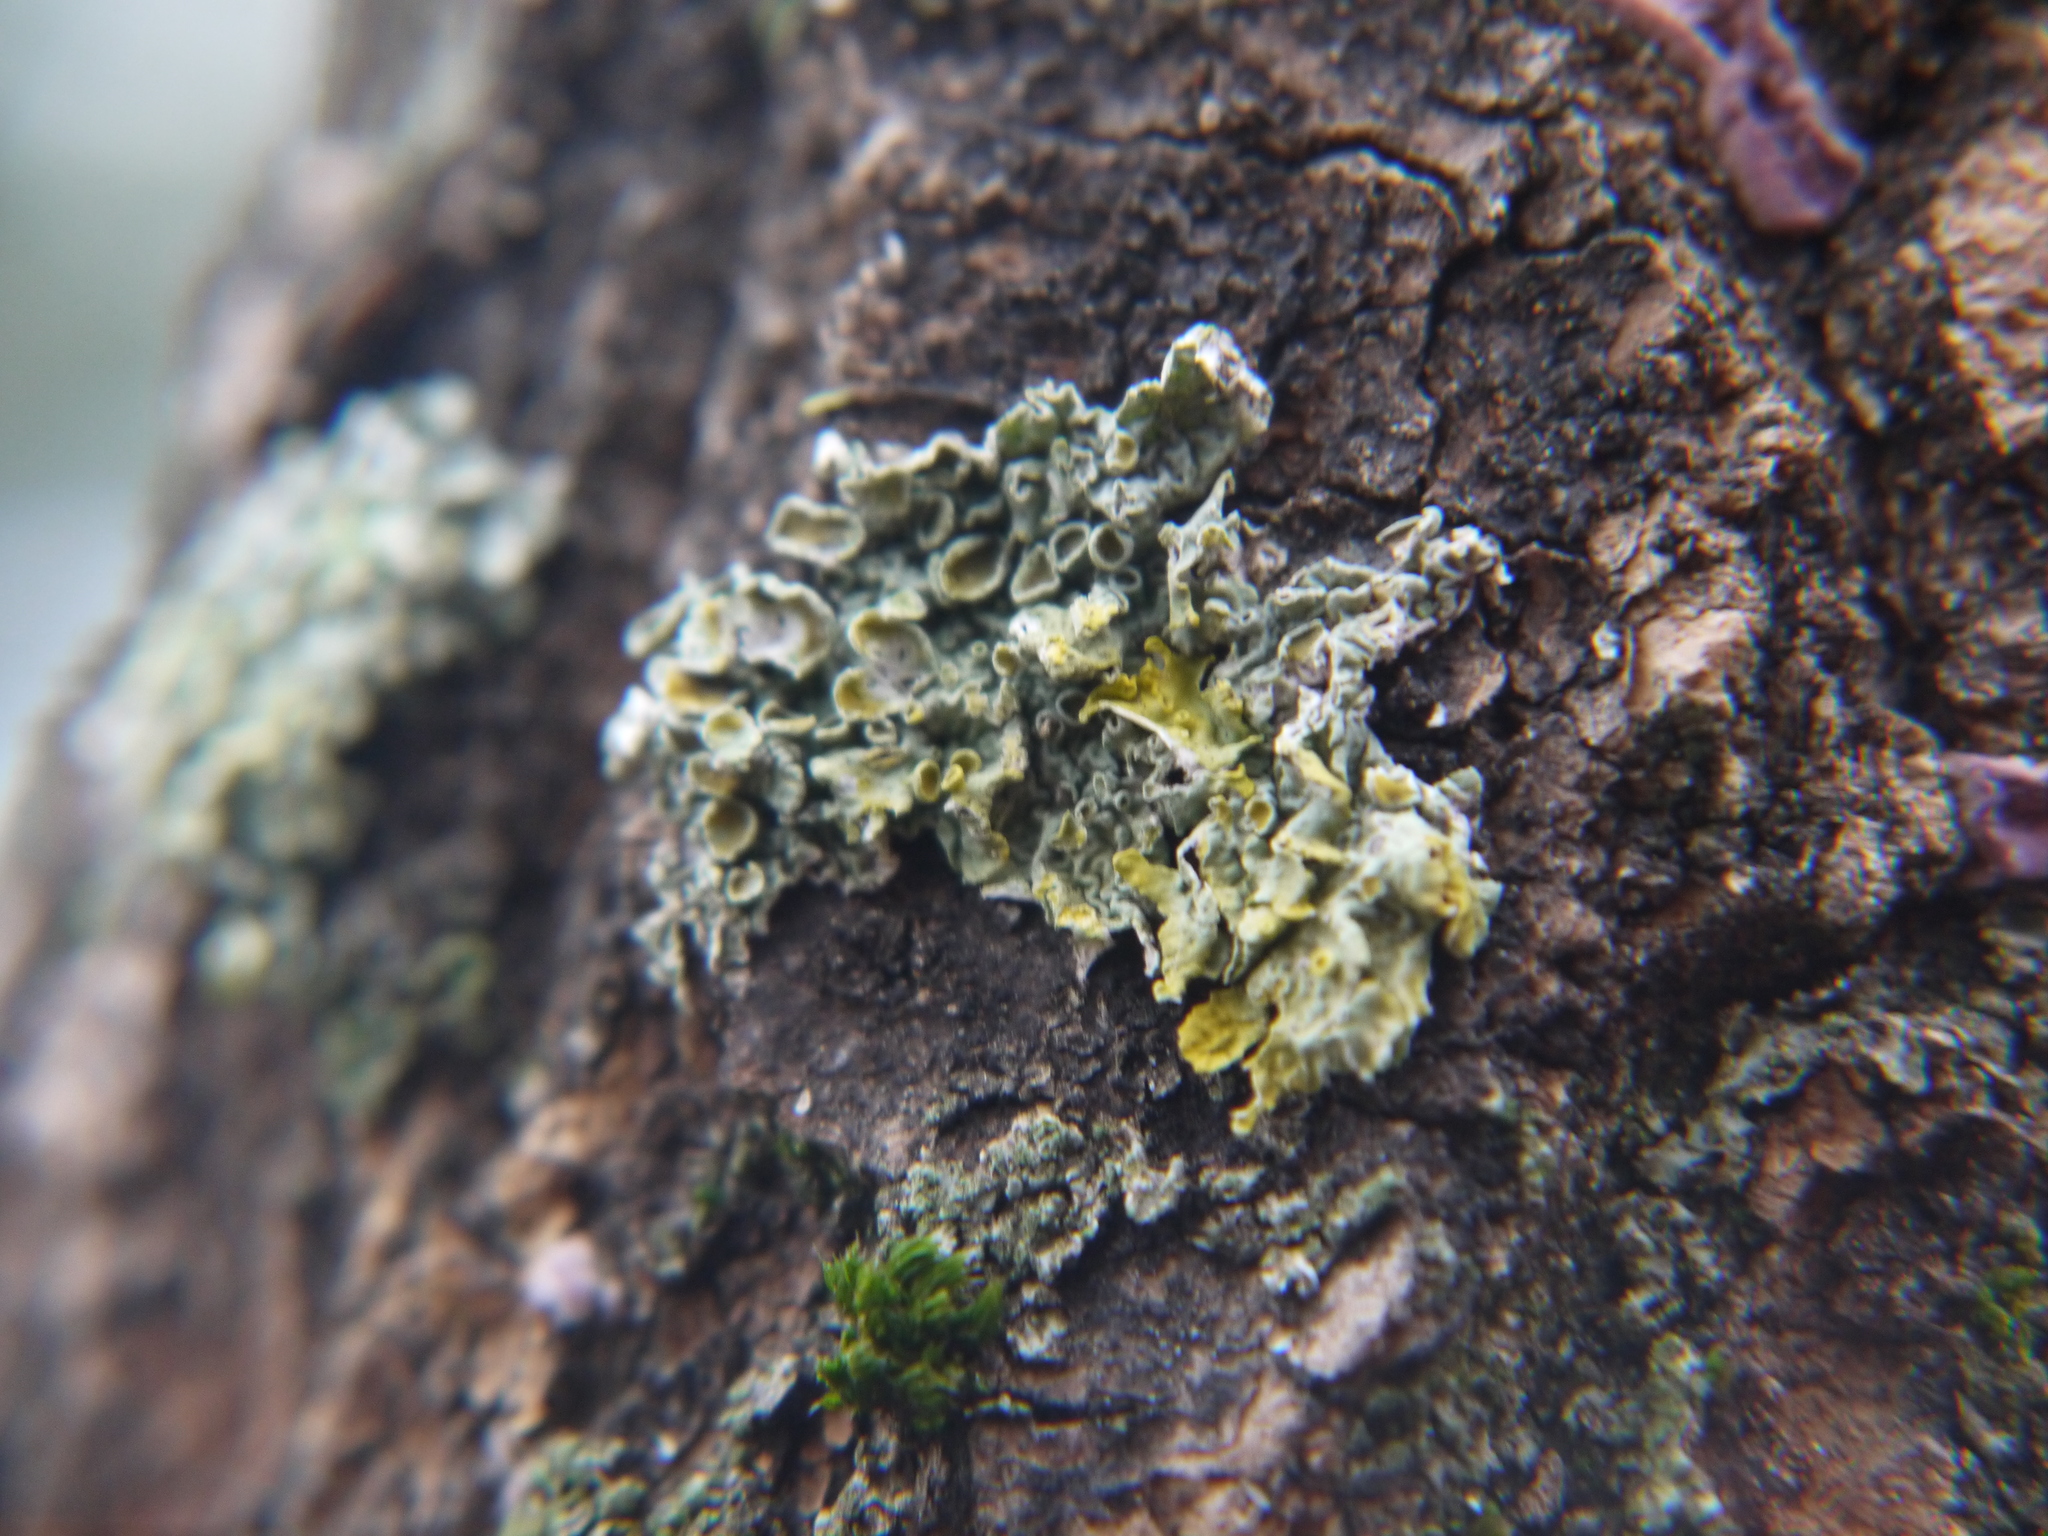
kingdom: Fungi
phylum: Ascomycota
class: Lecanoromycetes
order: Teloschistales
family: Teloschistaceae
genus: Xanthoria
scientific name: Xanthoria parietina
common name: Common orange lichen
